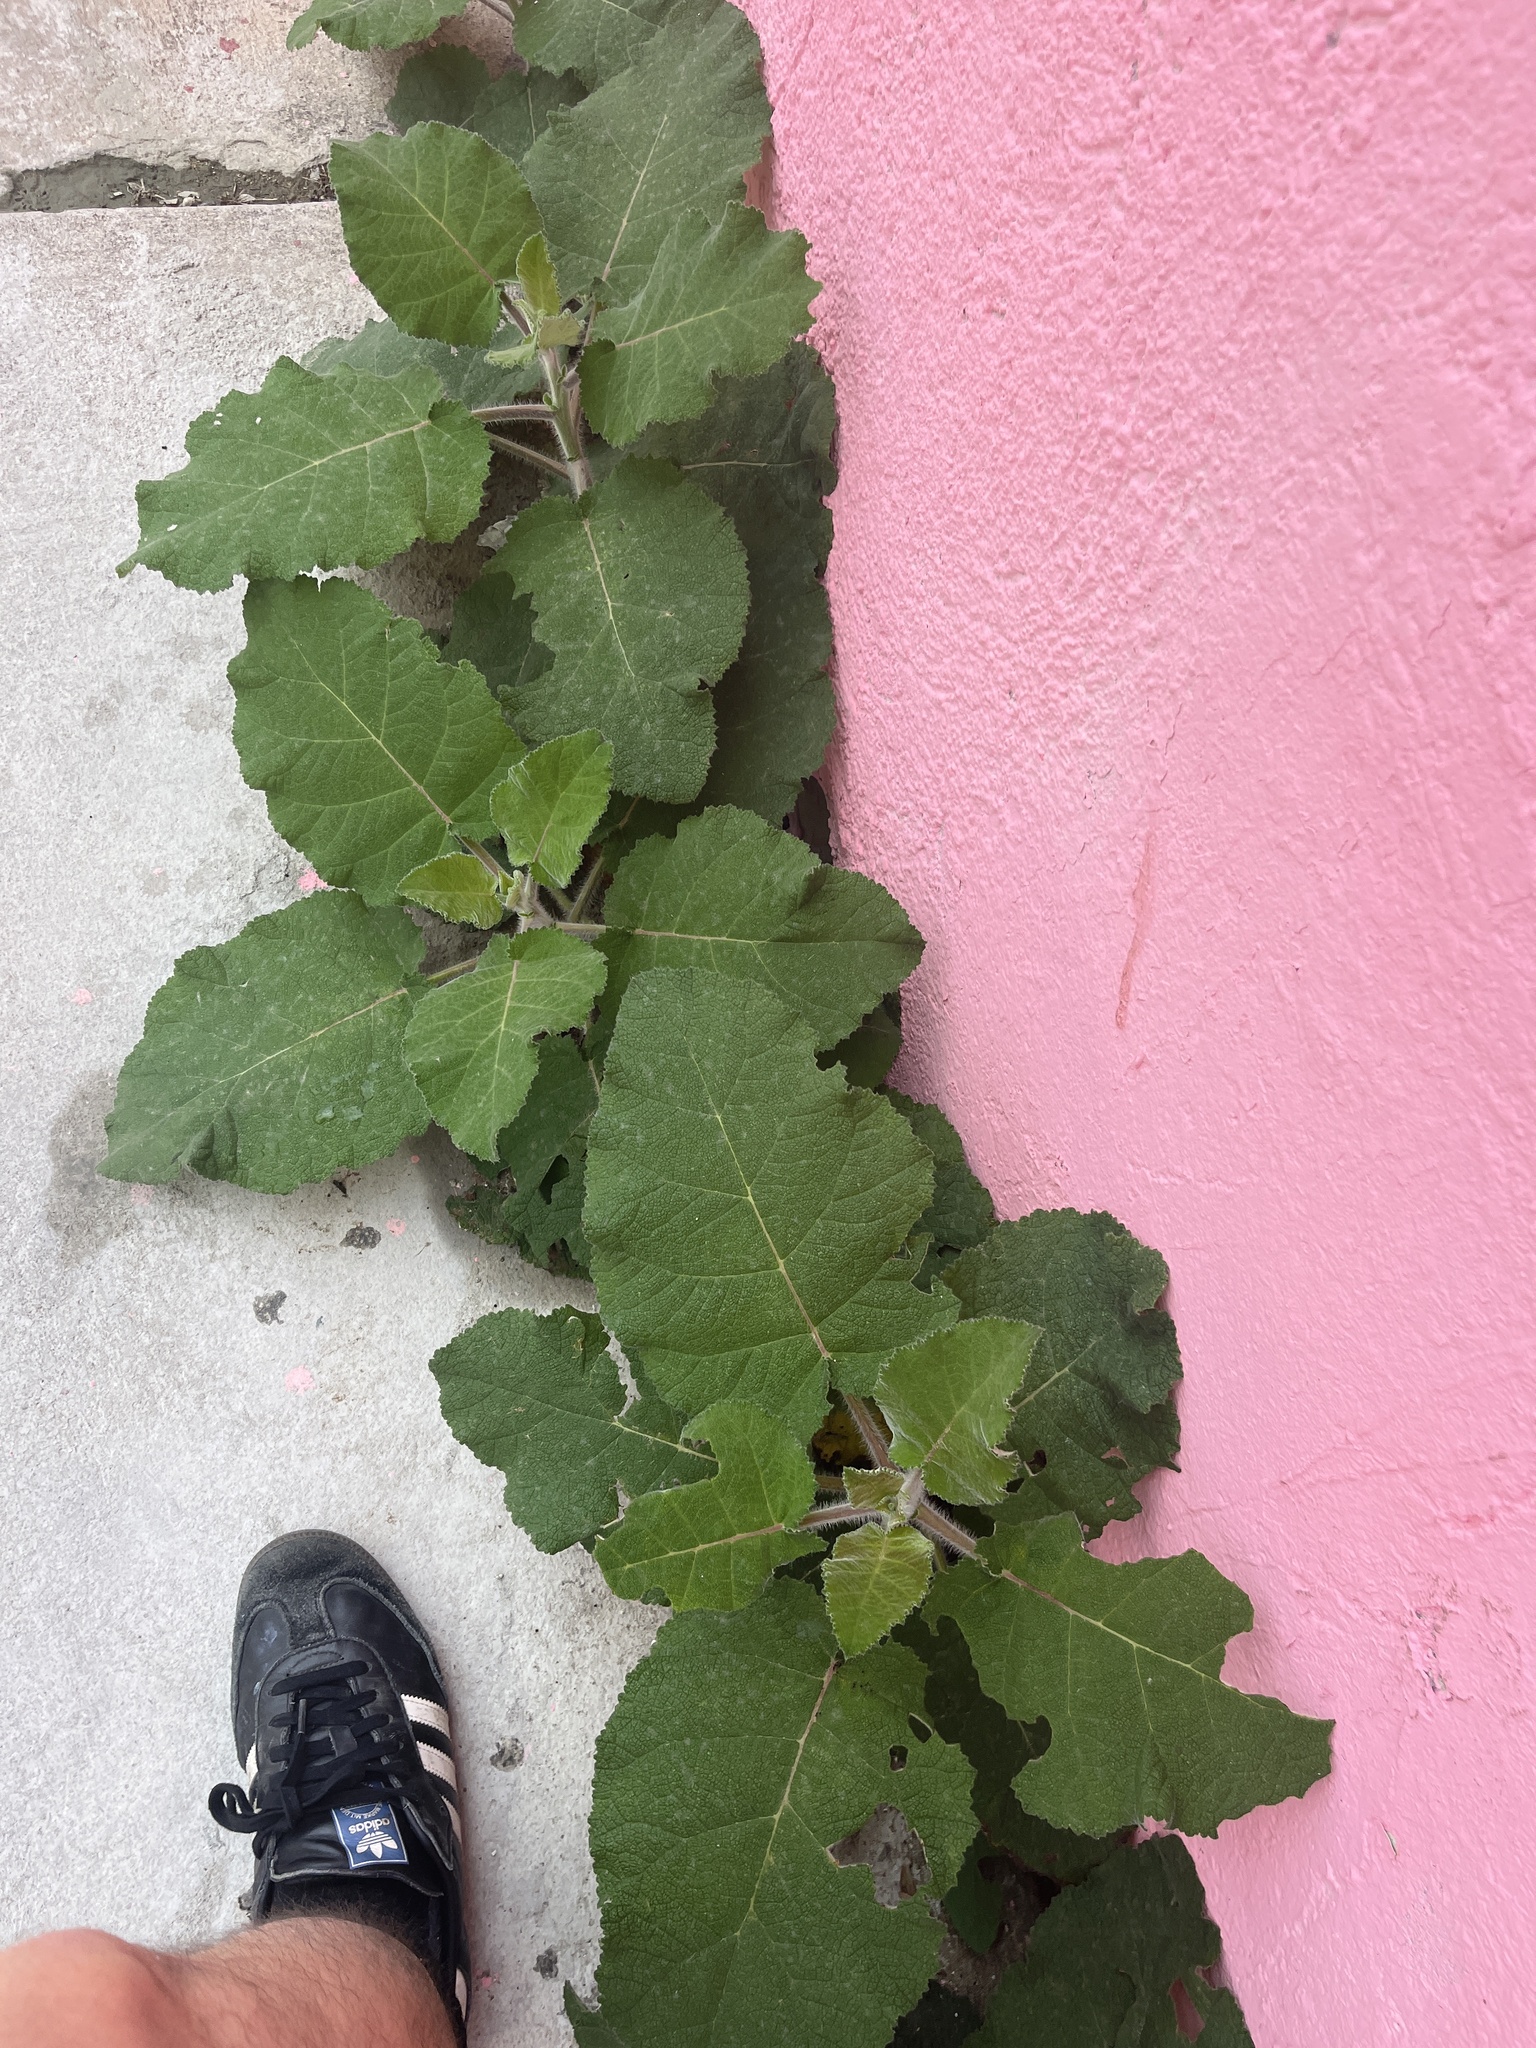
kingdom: Plantae
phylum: Tracheophyta
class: Magnoliopsida
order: Boraginales
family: Namaceae
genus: Wigandia
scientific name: Wigandia urens
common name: Caracus wigandia
